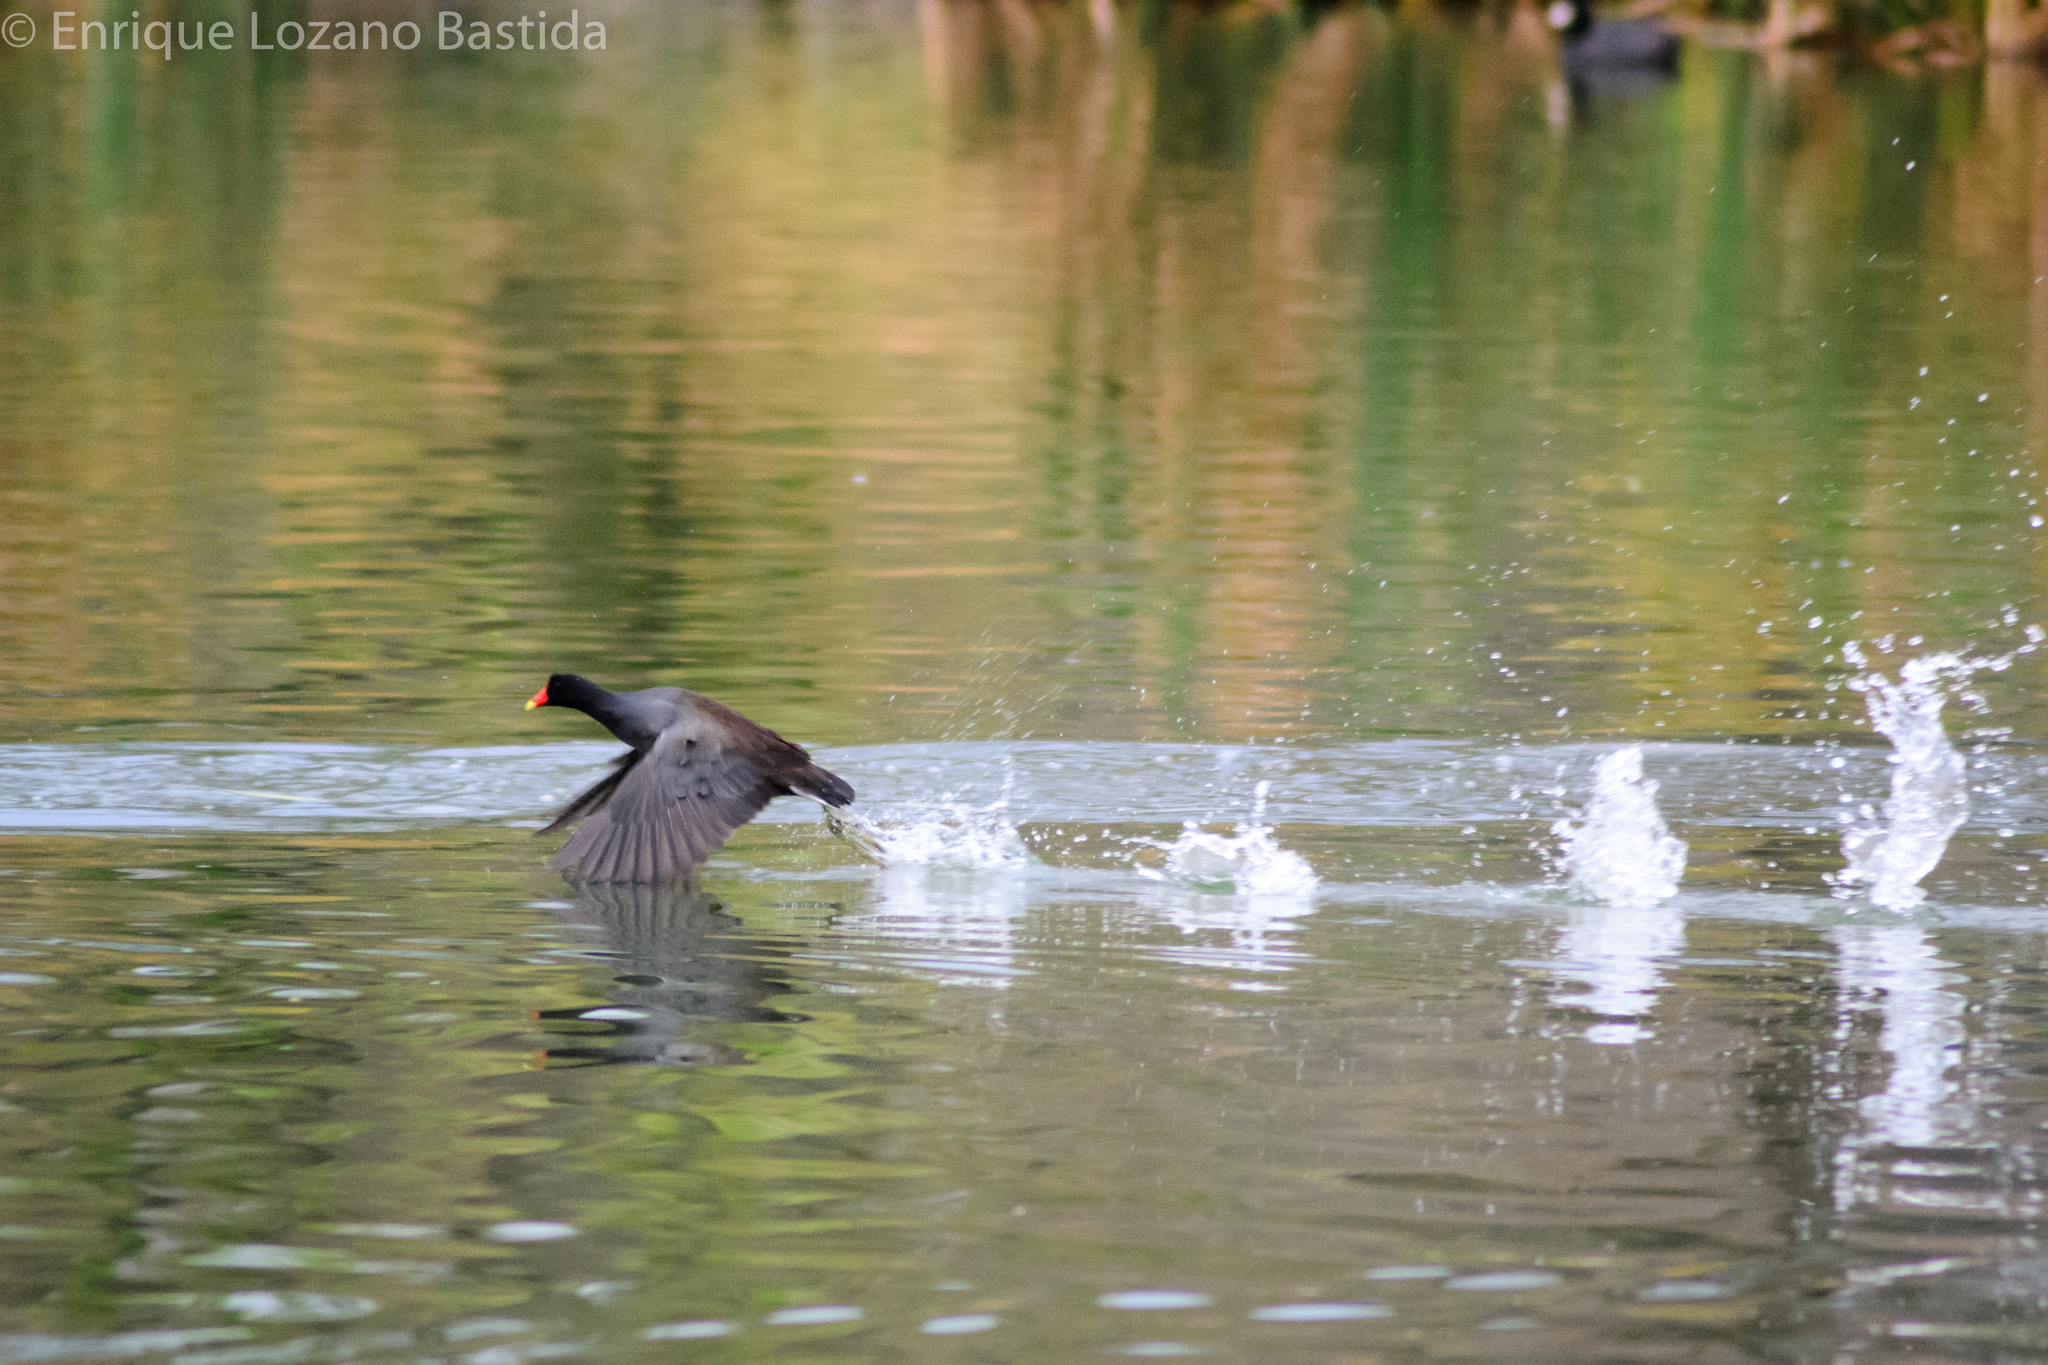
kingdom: Animalia
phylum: Chordata
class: Aves
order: Gruiformes
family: Rallidae
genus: Gallinula
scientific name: Gallinula chloropus
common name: Common moorhen
